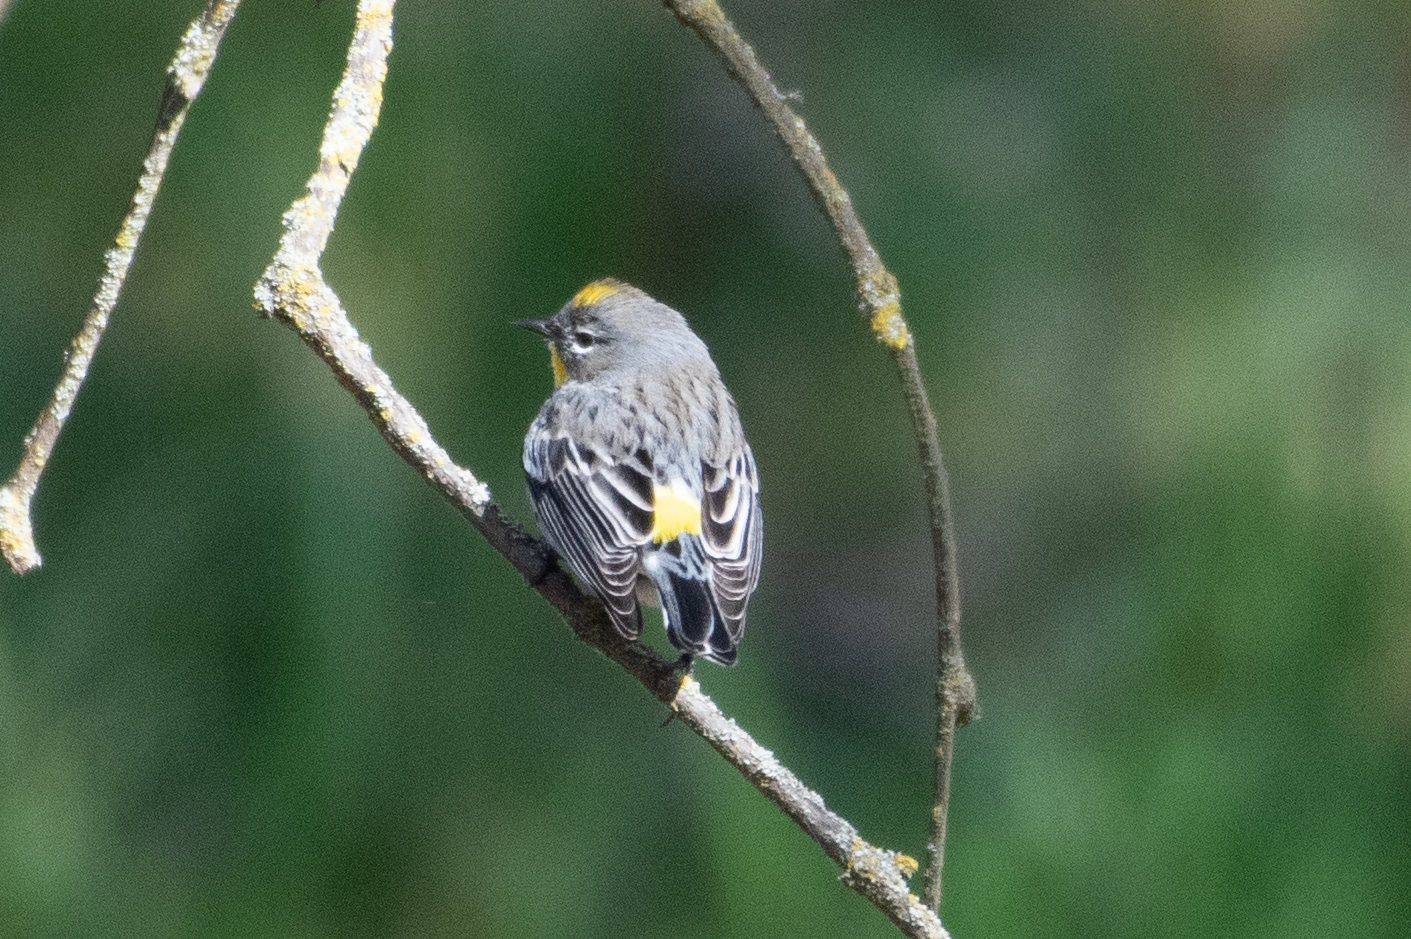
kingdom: Animalia
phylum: Chordata
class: Aves
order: Passeriformes
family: Parulidae
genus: Setophaga
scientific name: Setophaga coronata
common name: Myrtle warbler
